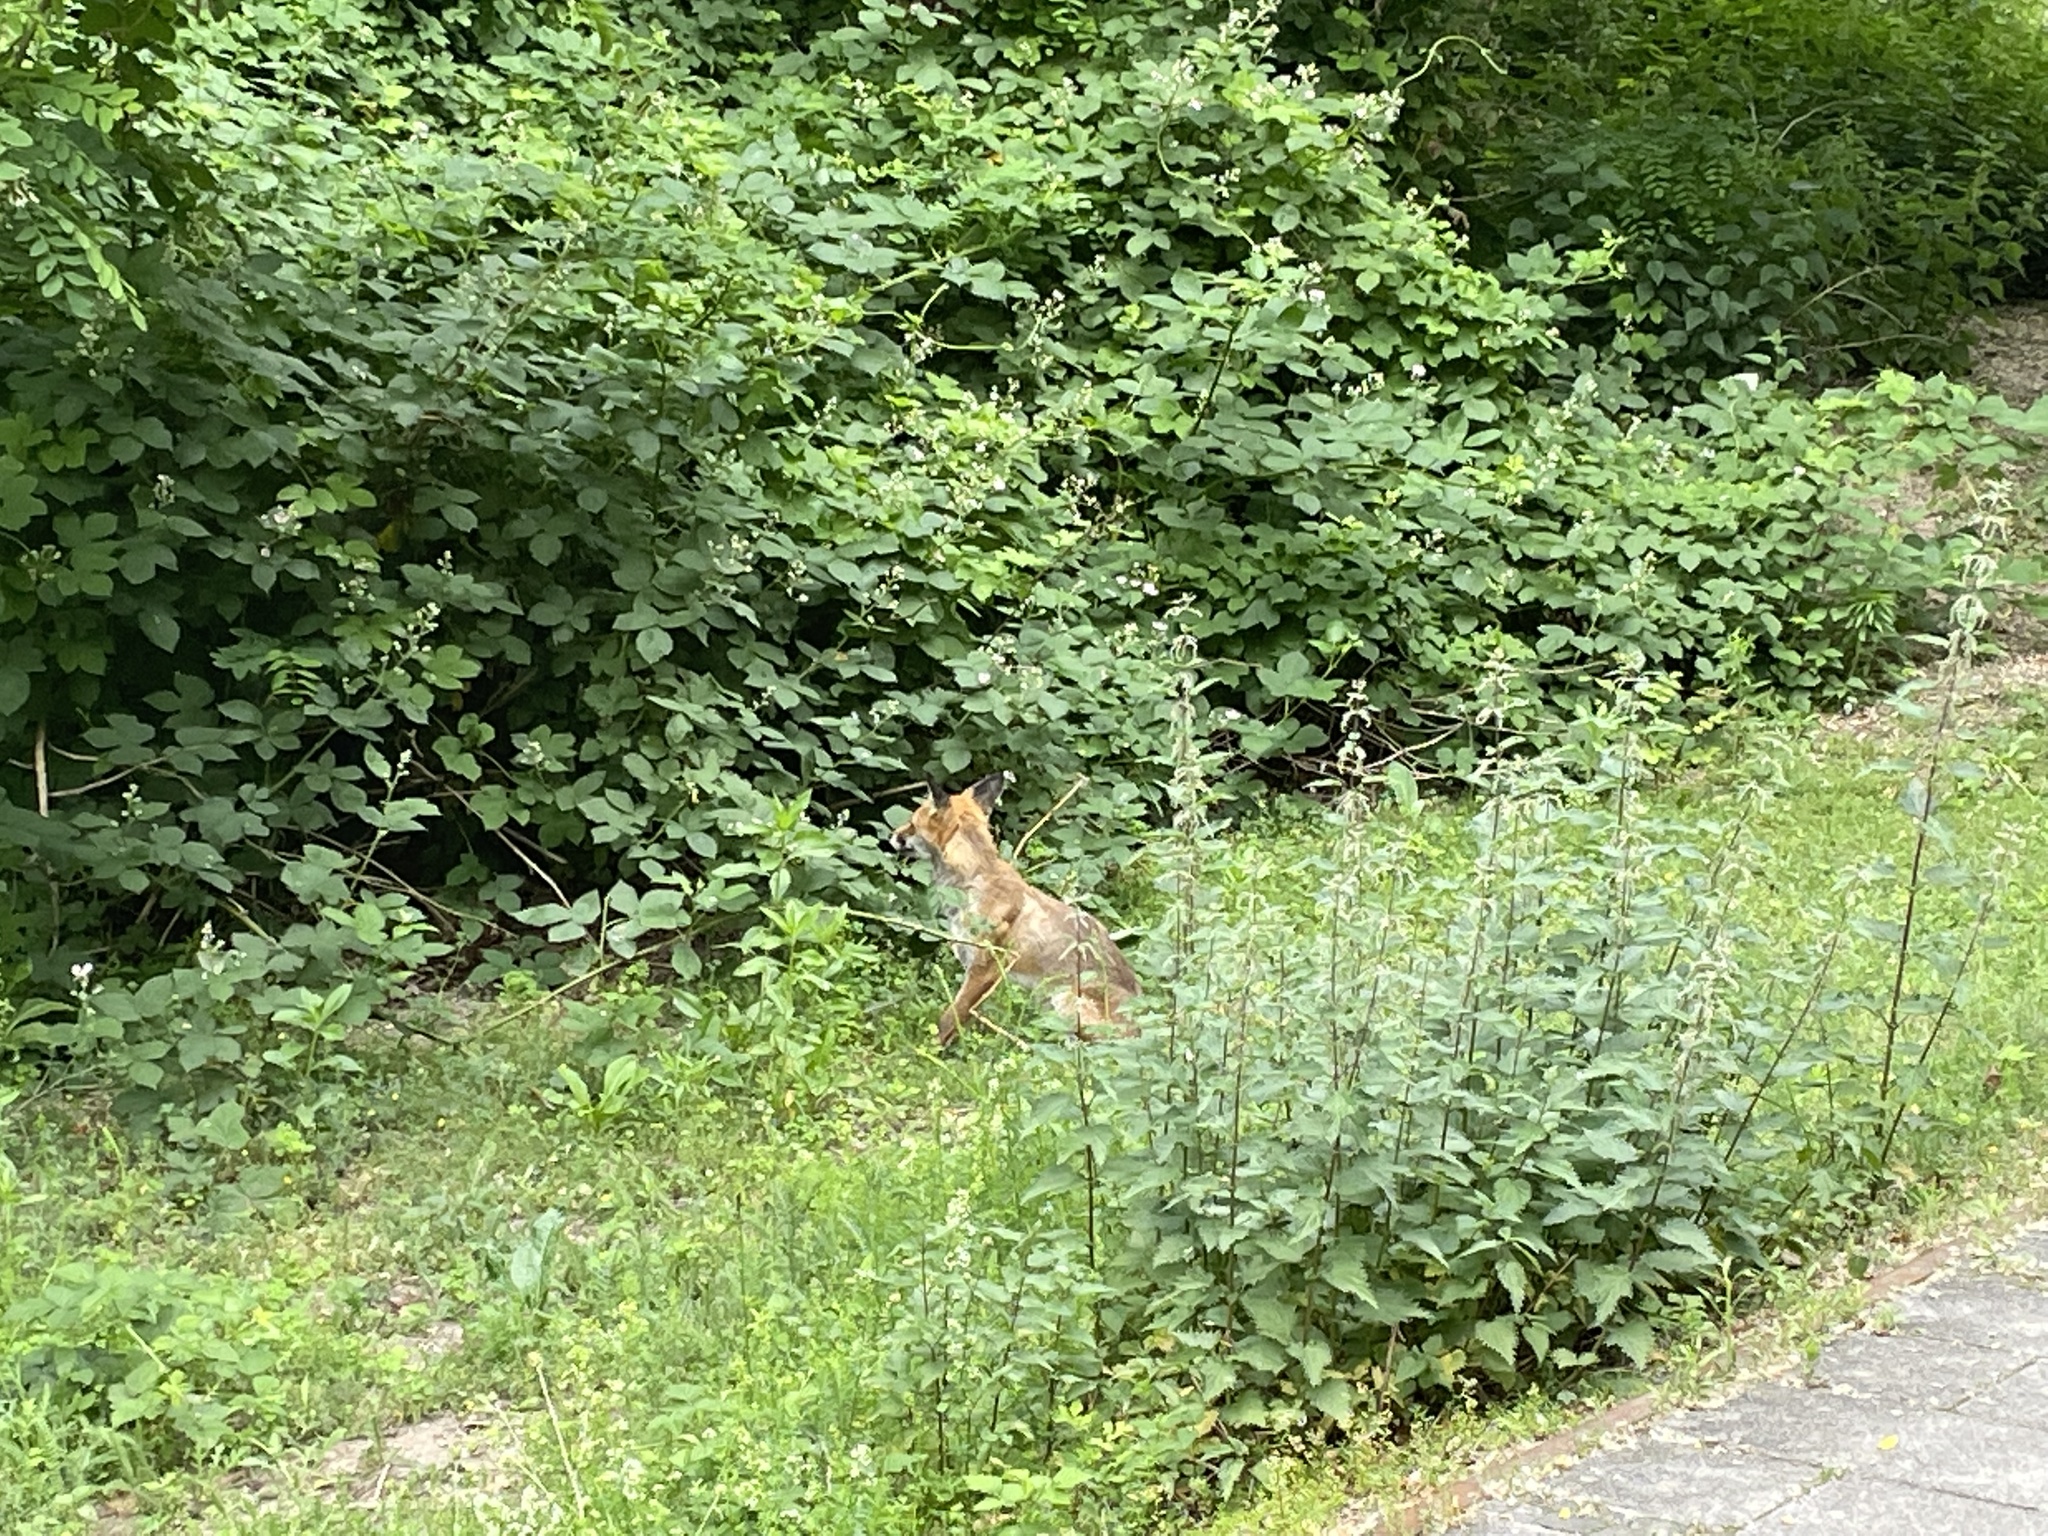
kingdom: Animalia
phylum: Chordata
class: Mammalia
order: Carnivora
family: Canidae
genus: Vulpes
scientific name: Vulpes vulpes
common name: Red fox
